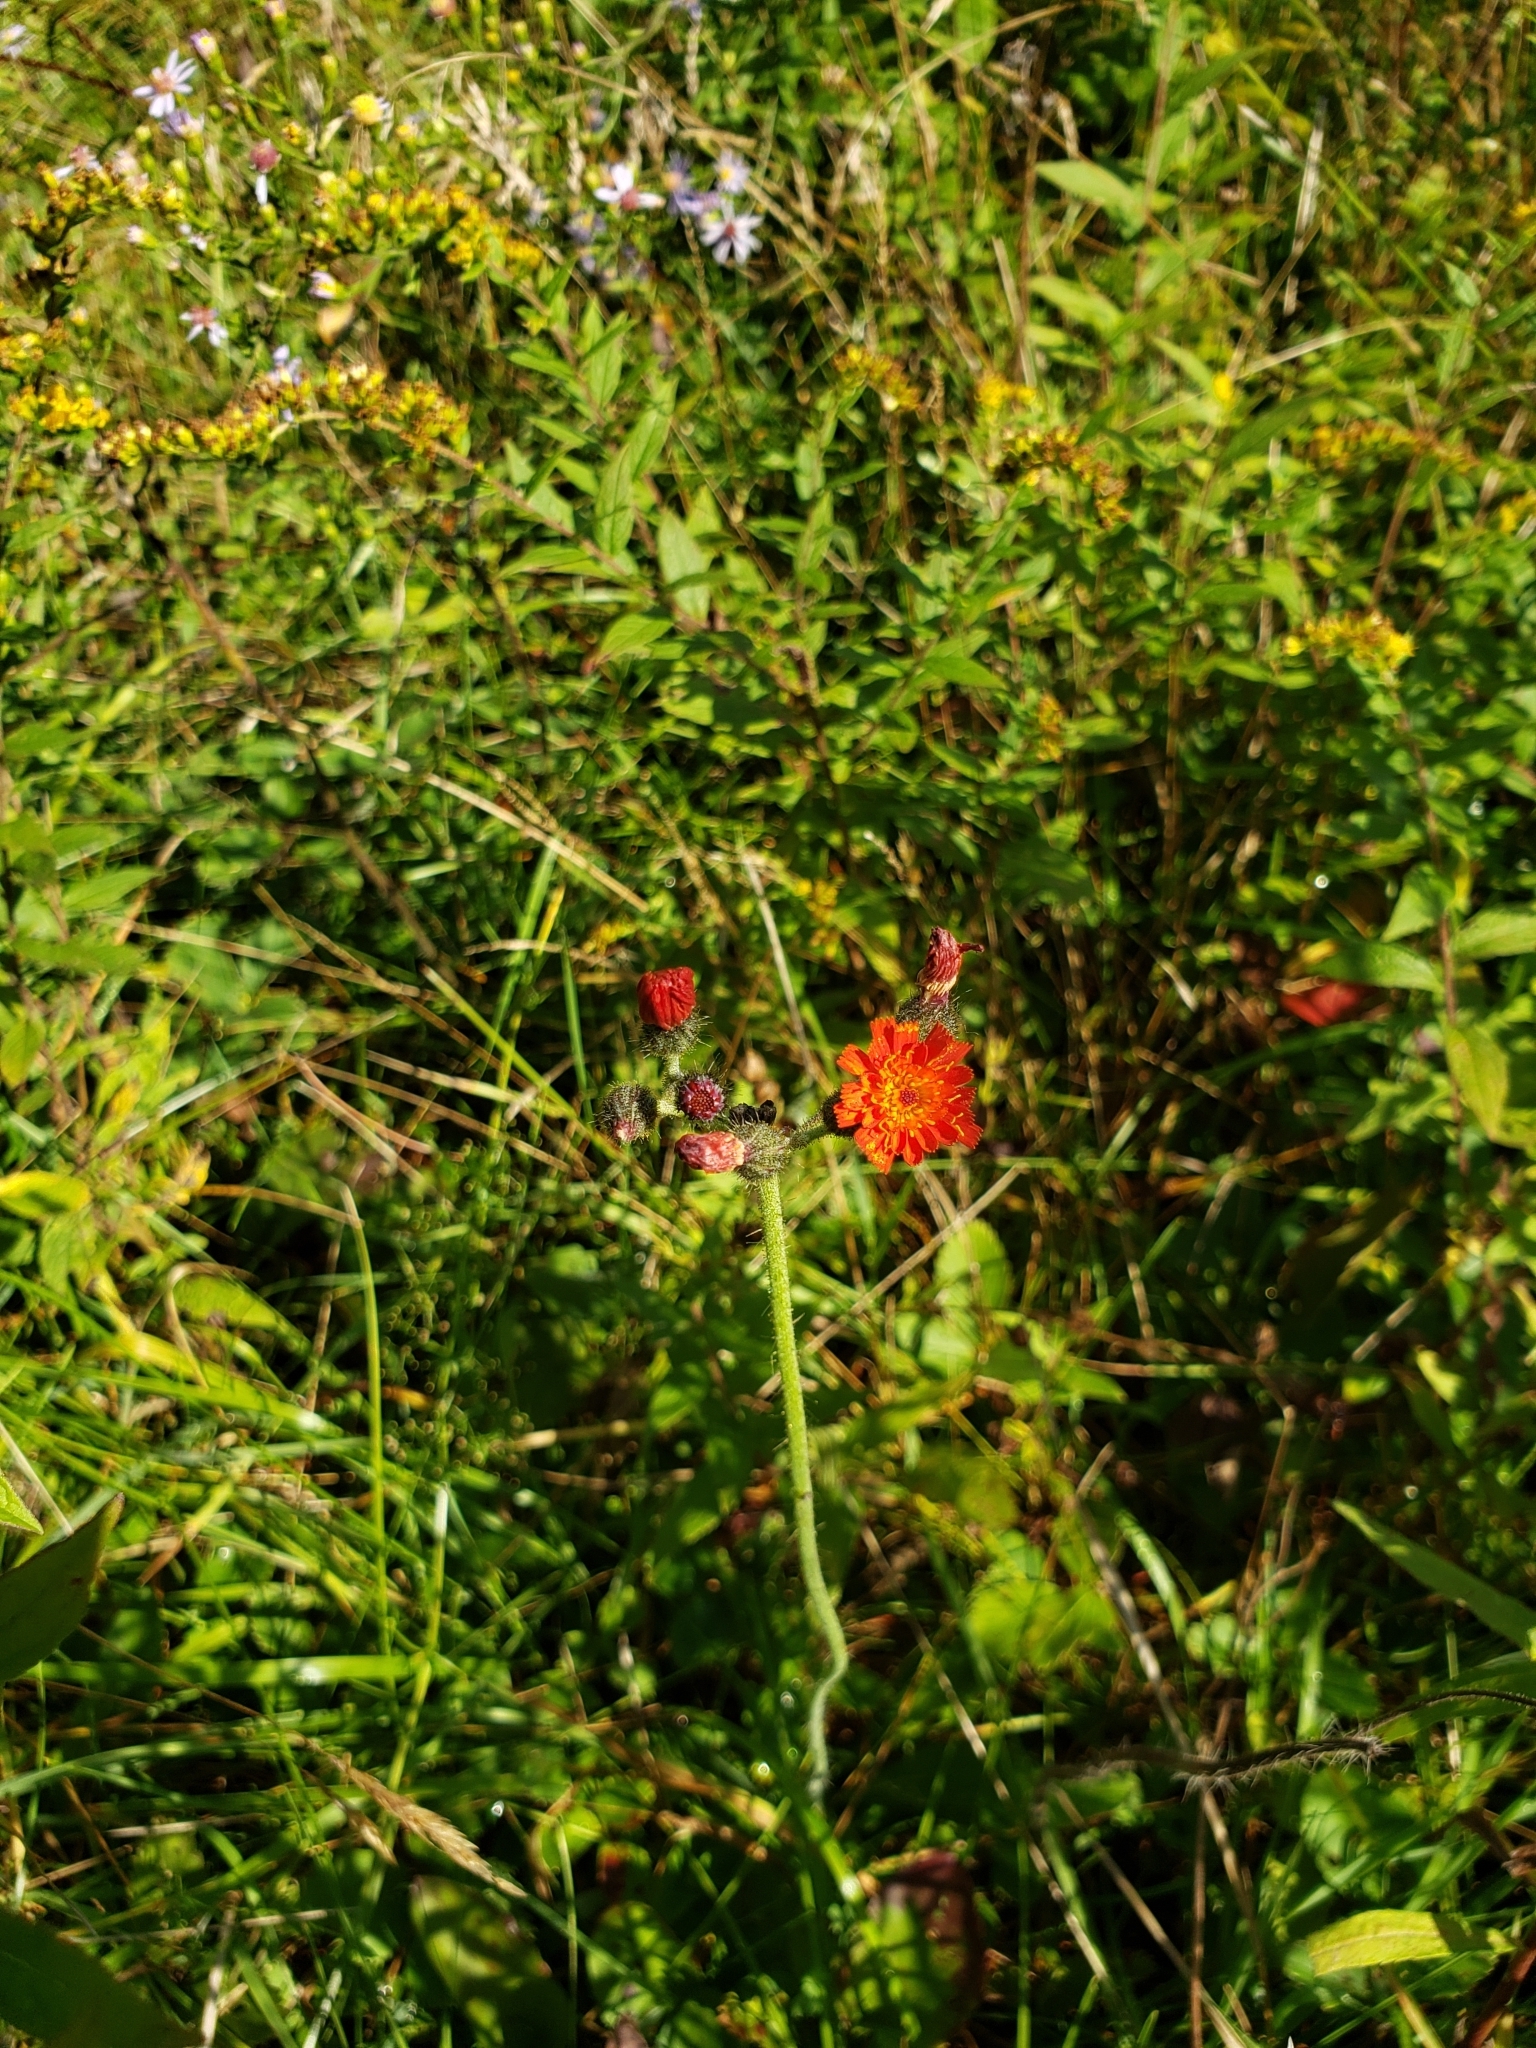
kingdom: Plantae
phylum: Tracheophyta
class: Magnoliopsida
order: Asterales
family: Asteraceae
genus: Pilosella
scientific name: Pilosella aurantiaca
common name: Fox-and-cubs
